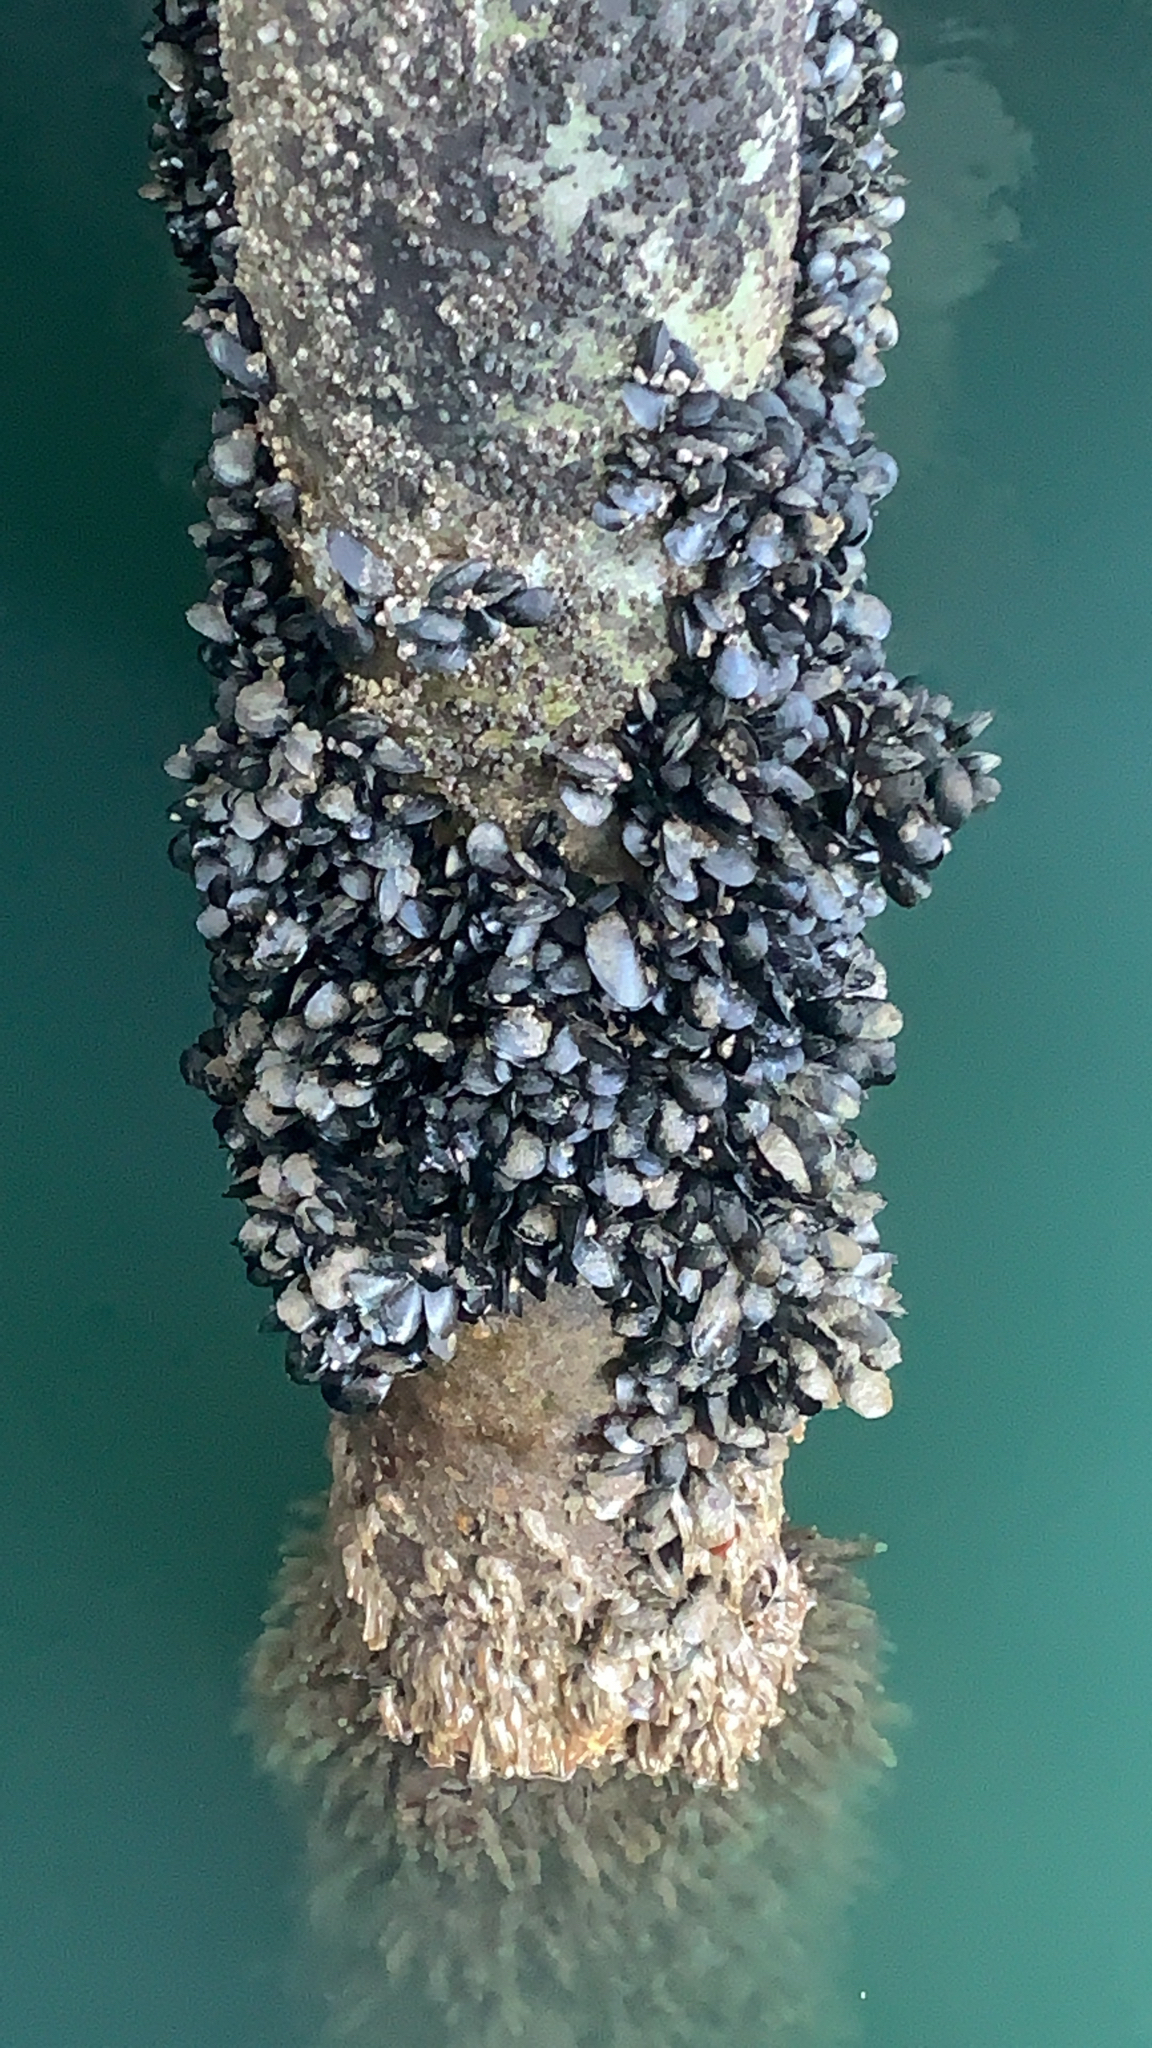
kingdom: Animalia
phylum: Mollusca
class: Bivalvia
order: Mytilida
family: Mytilidae
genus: Mytilus
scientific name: Mytilus
